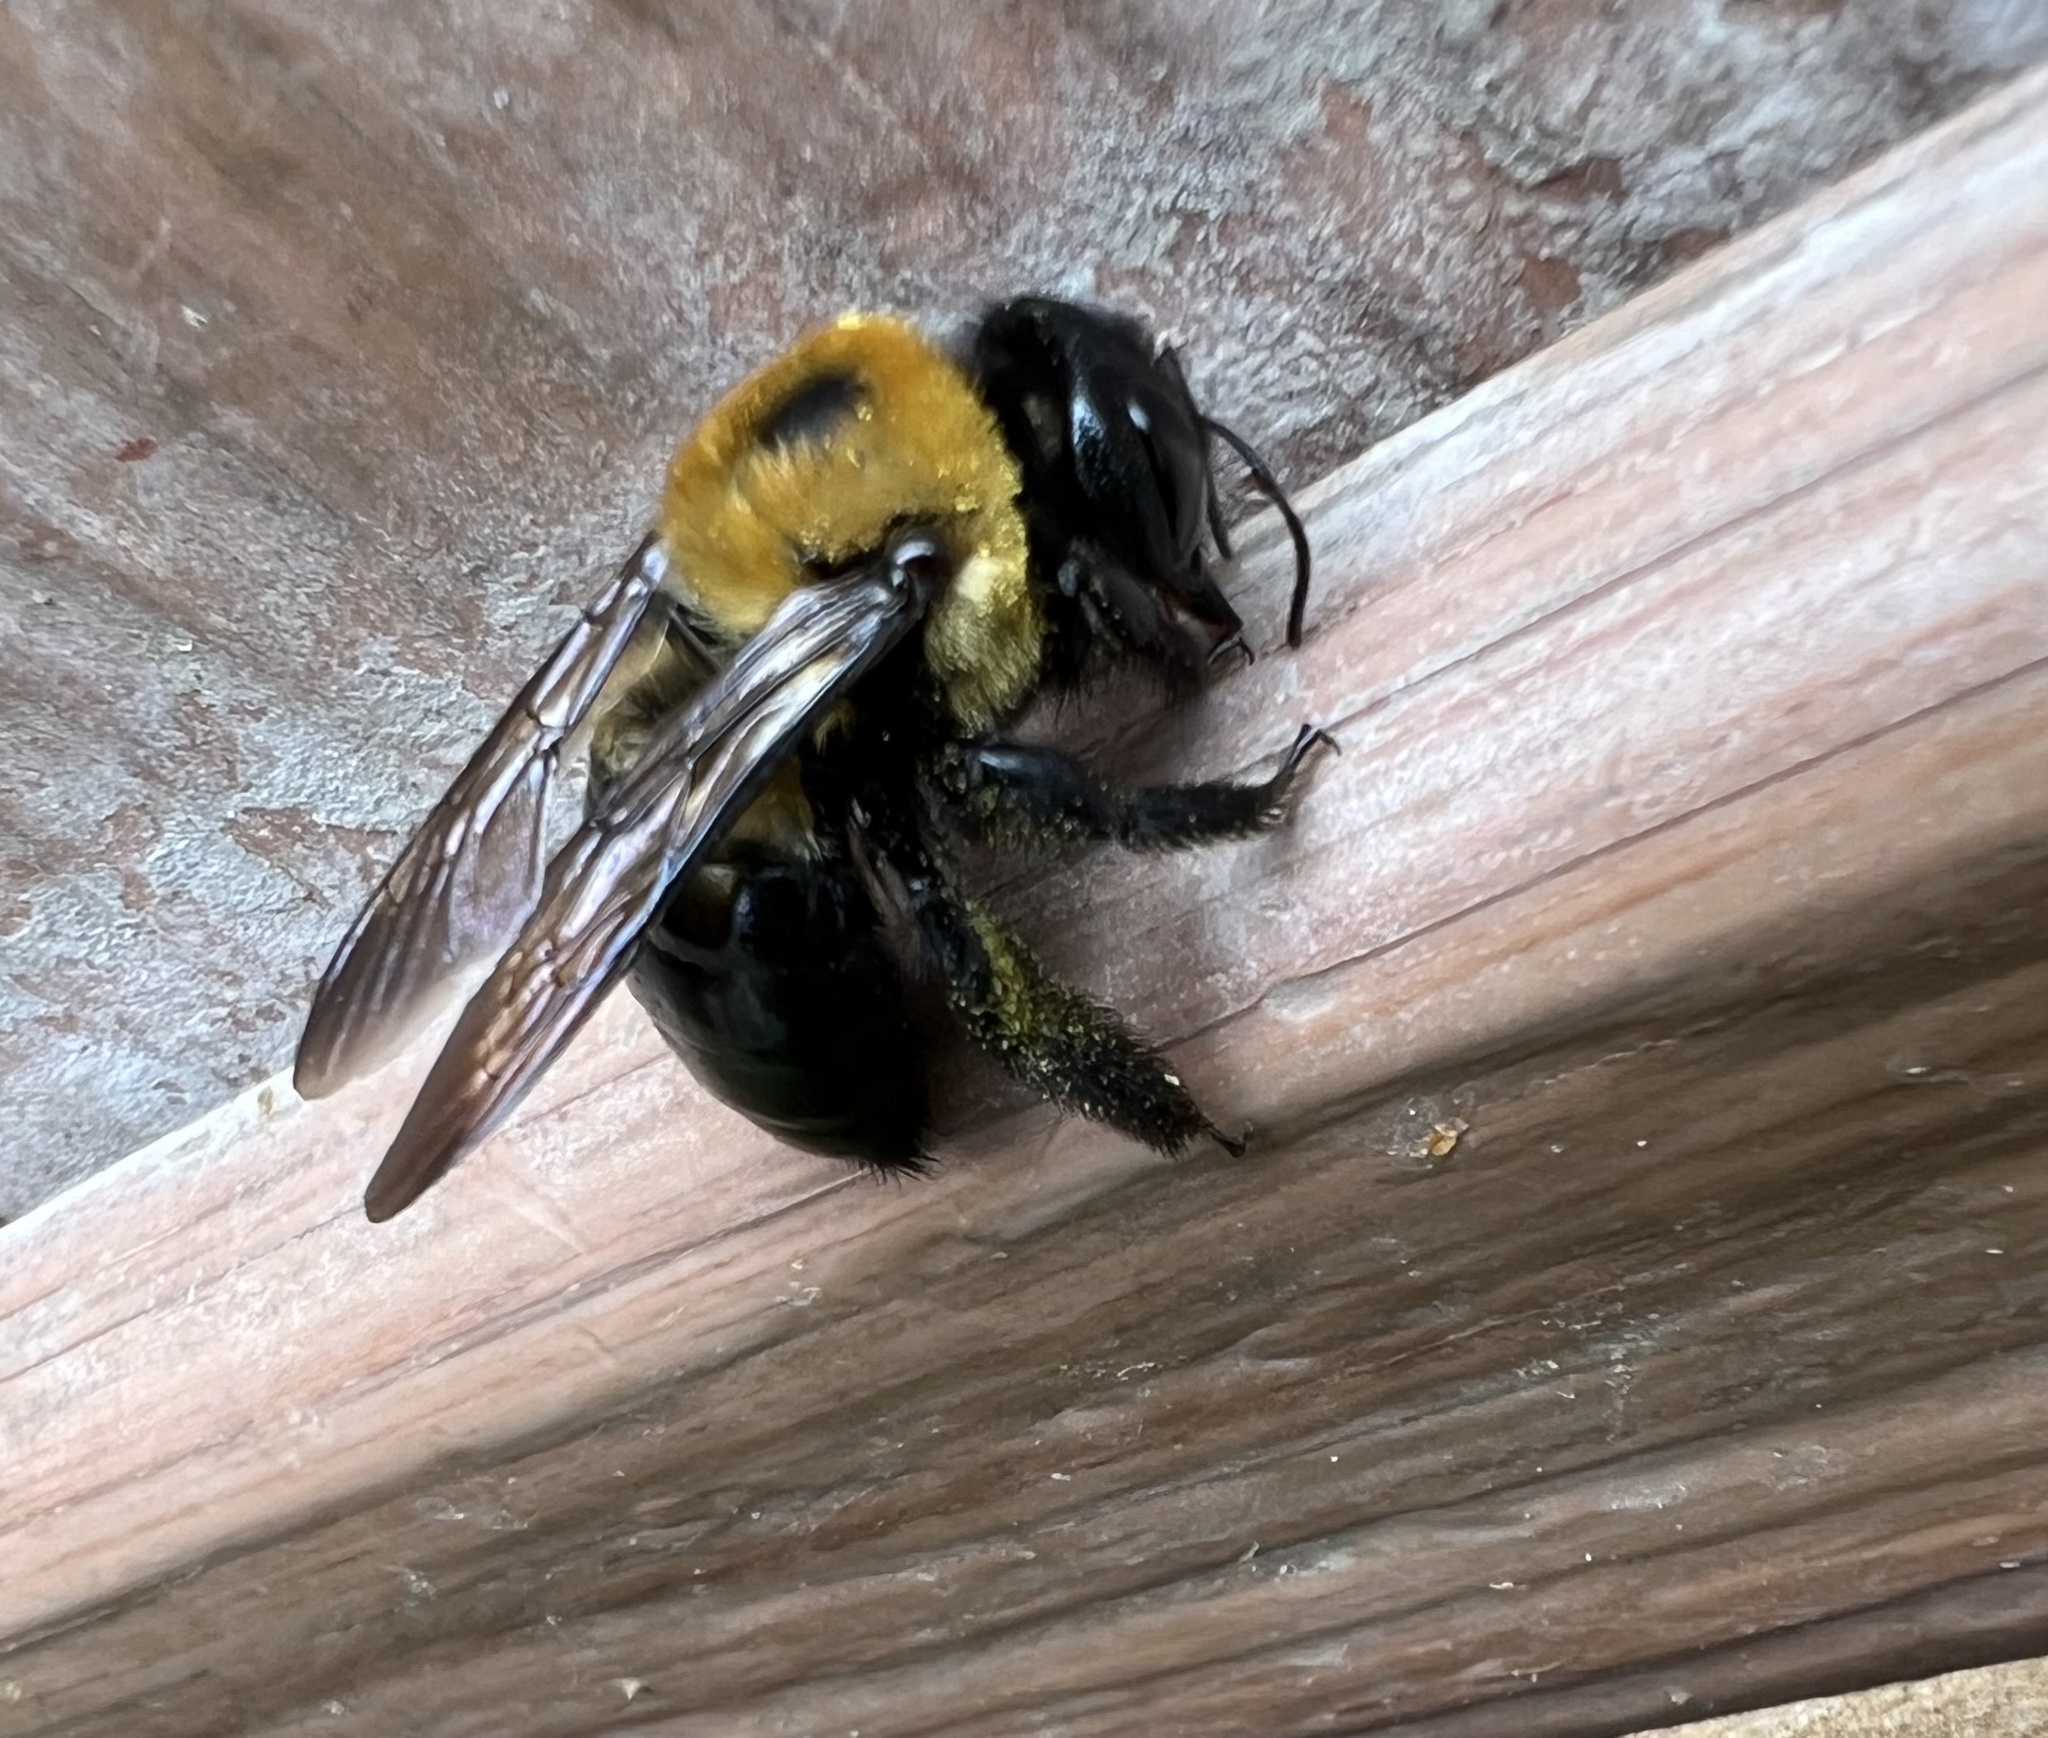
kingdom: Animalia
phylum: Arthropoda
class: Insecta
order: Hymenoptera
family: Apidae
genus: Xylocopa
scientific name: Xylocopa virginica
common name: Carpenter bee
